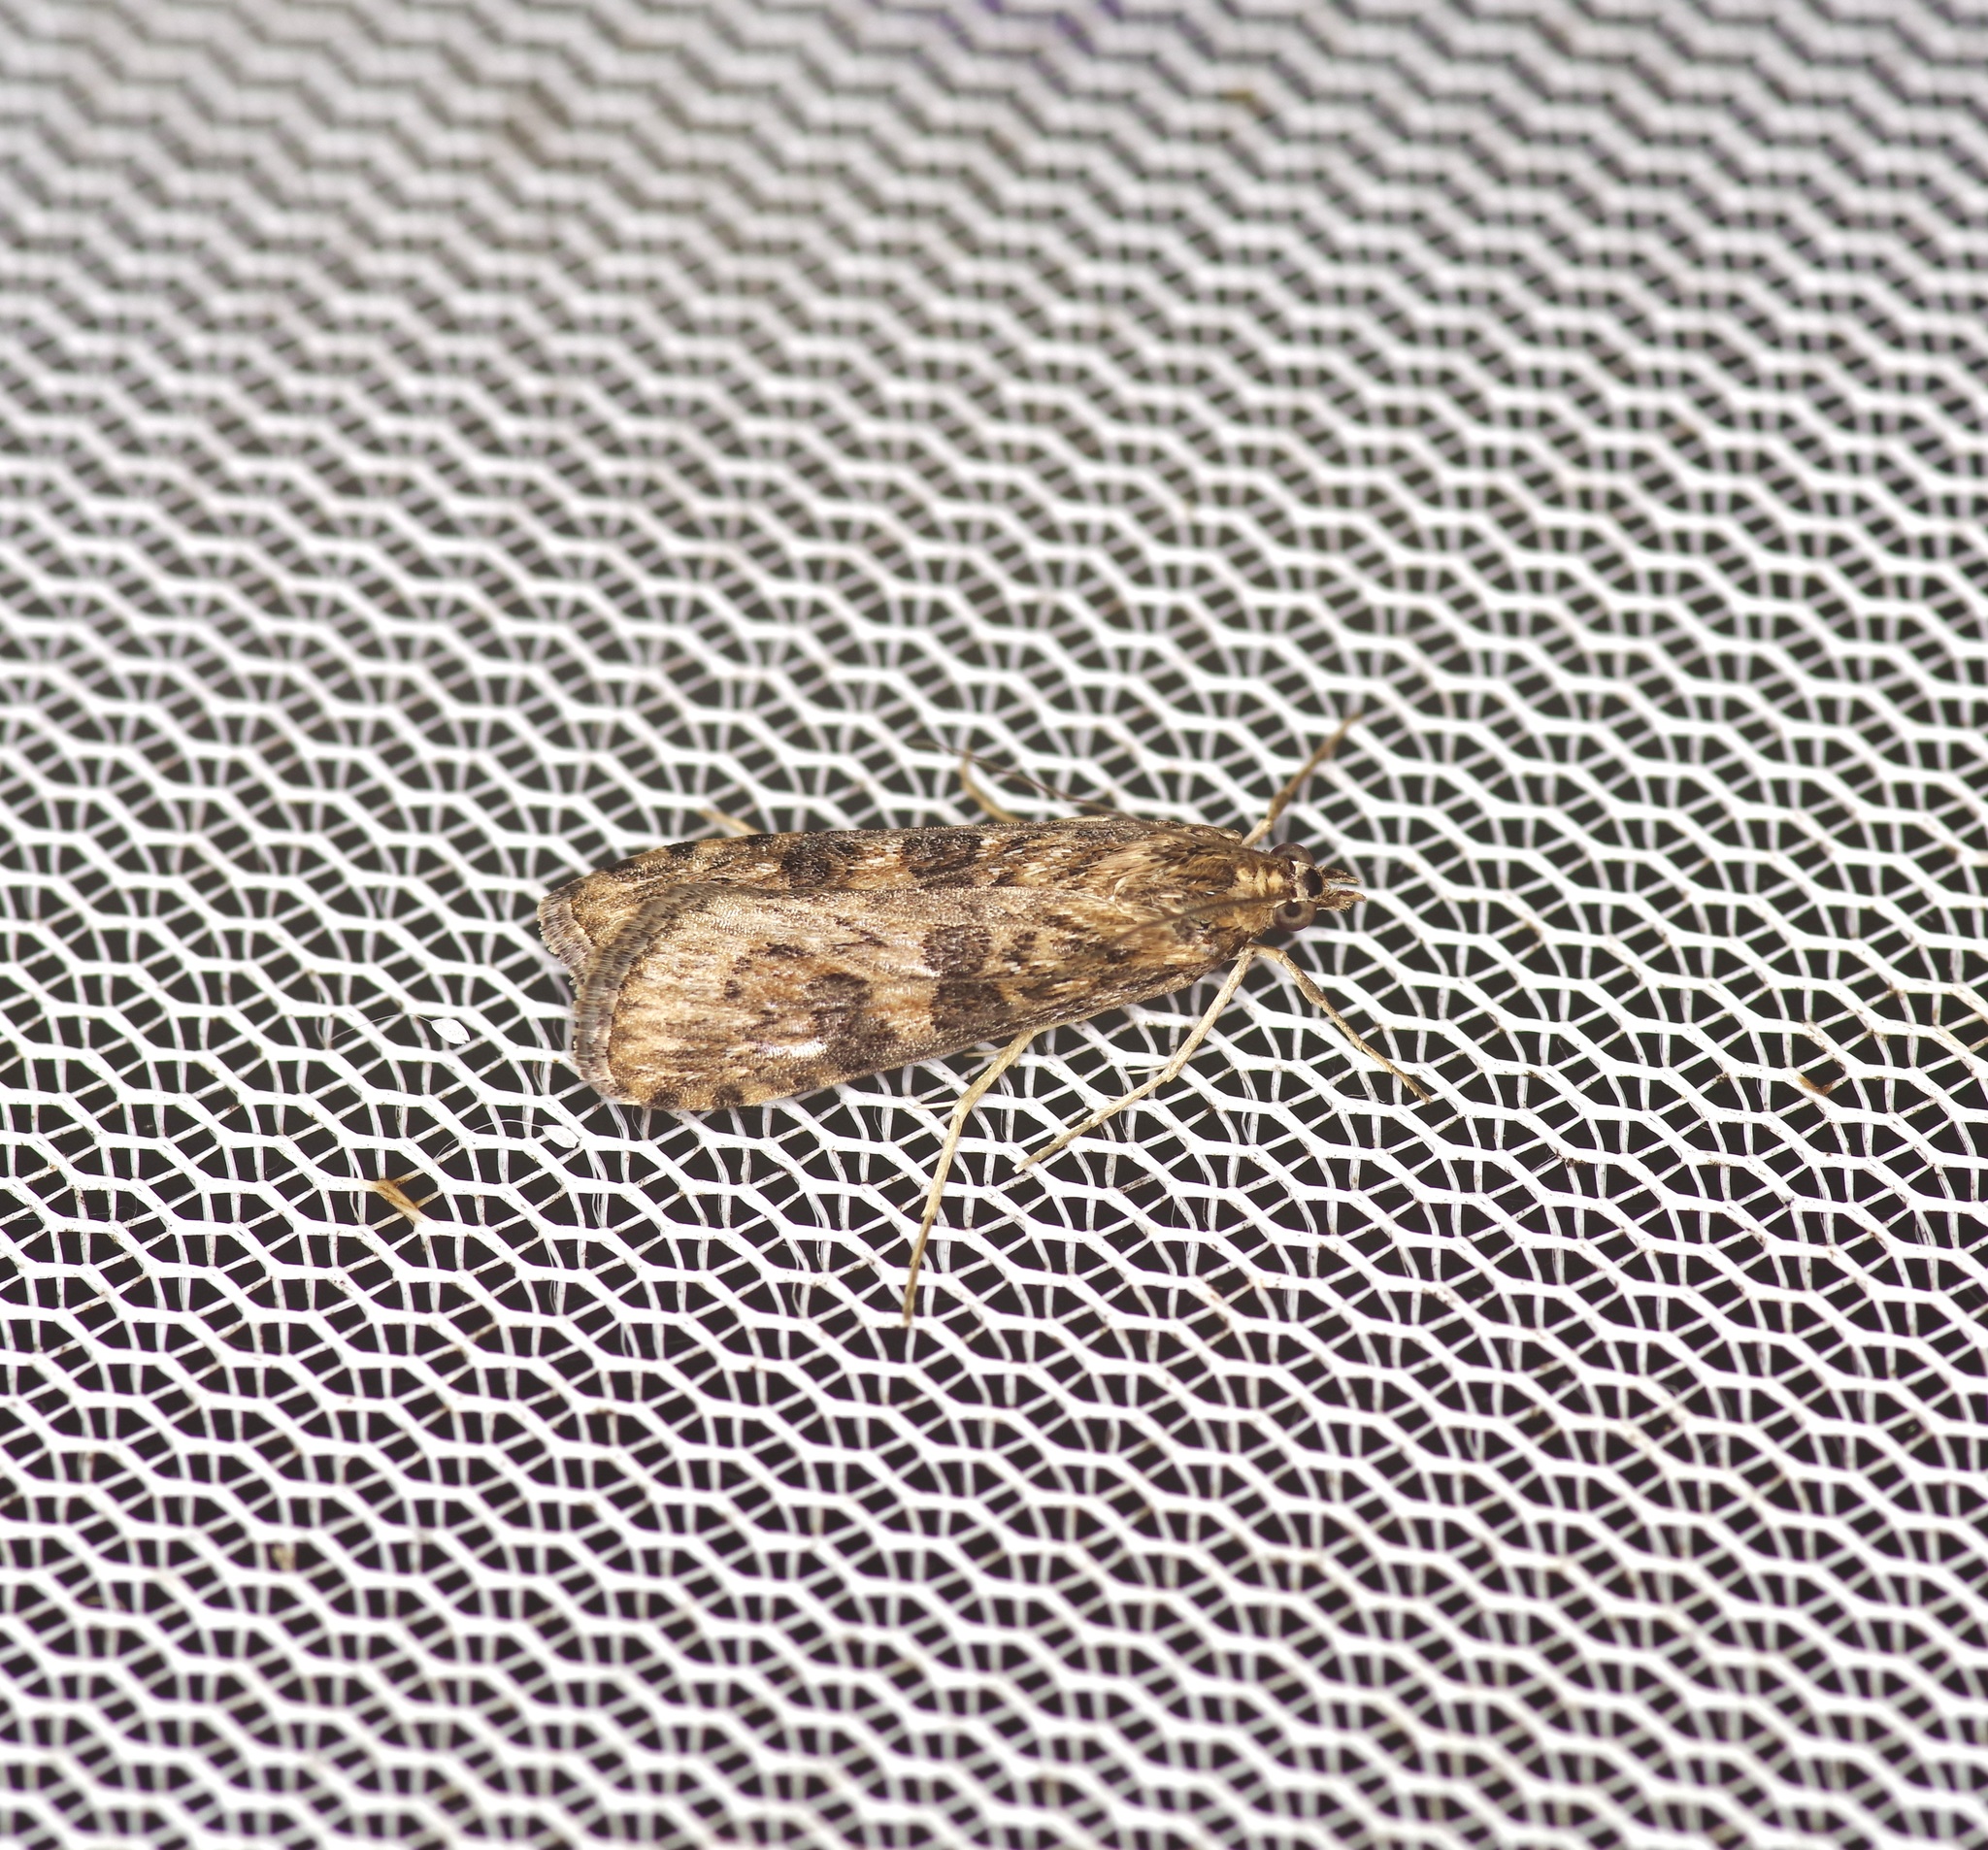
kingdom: Animalia
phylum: Arthropoda
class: Insecta
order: Lepidoptera
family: Crambidae
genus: Nomophila
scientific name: Nomophila nearctica
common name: American rush veneer
